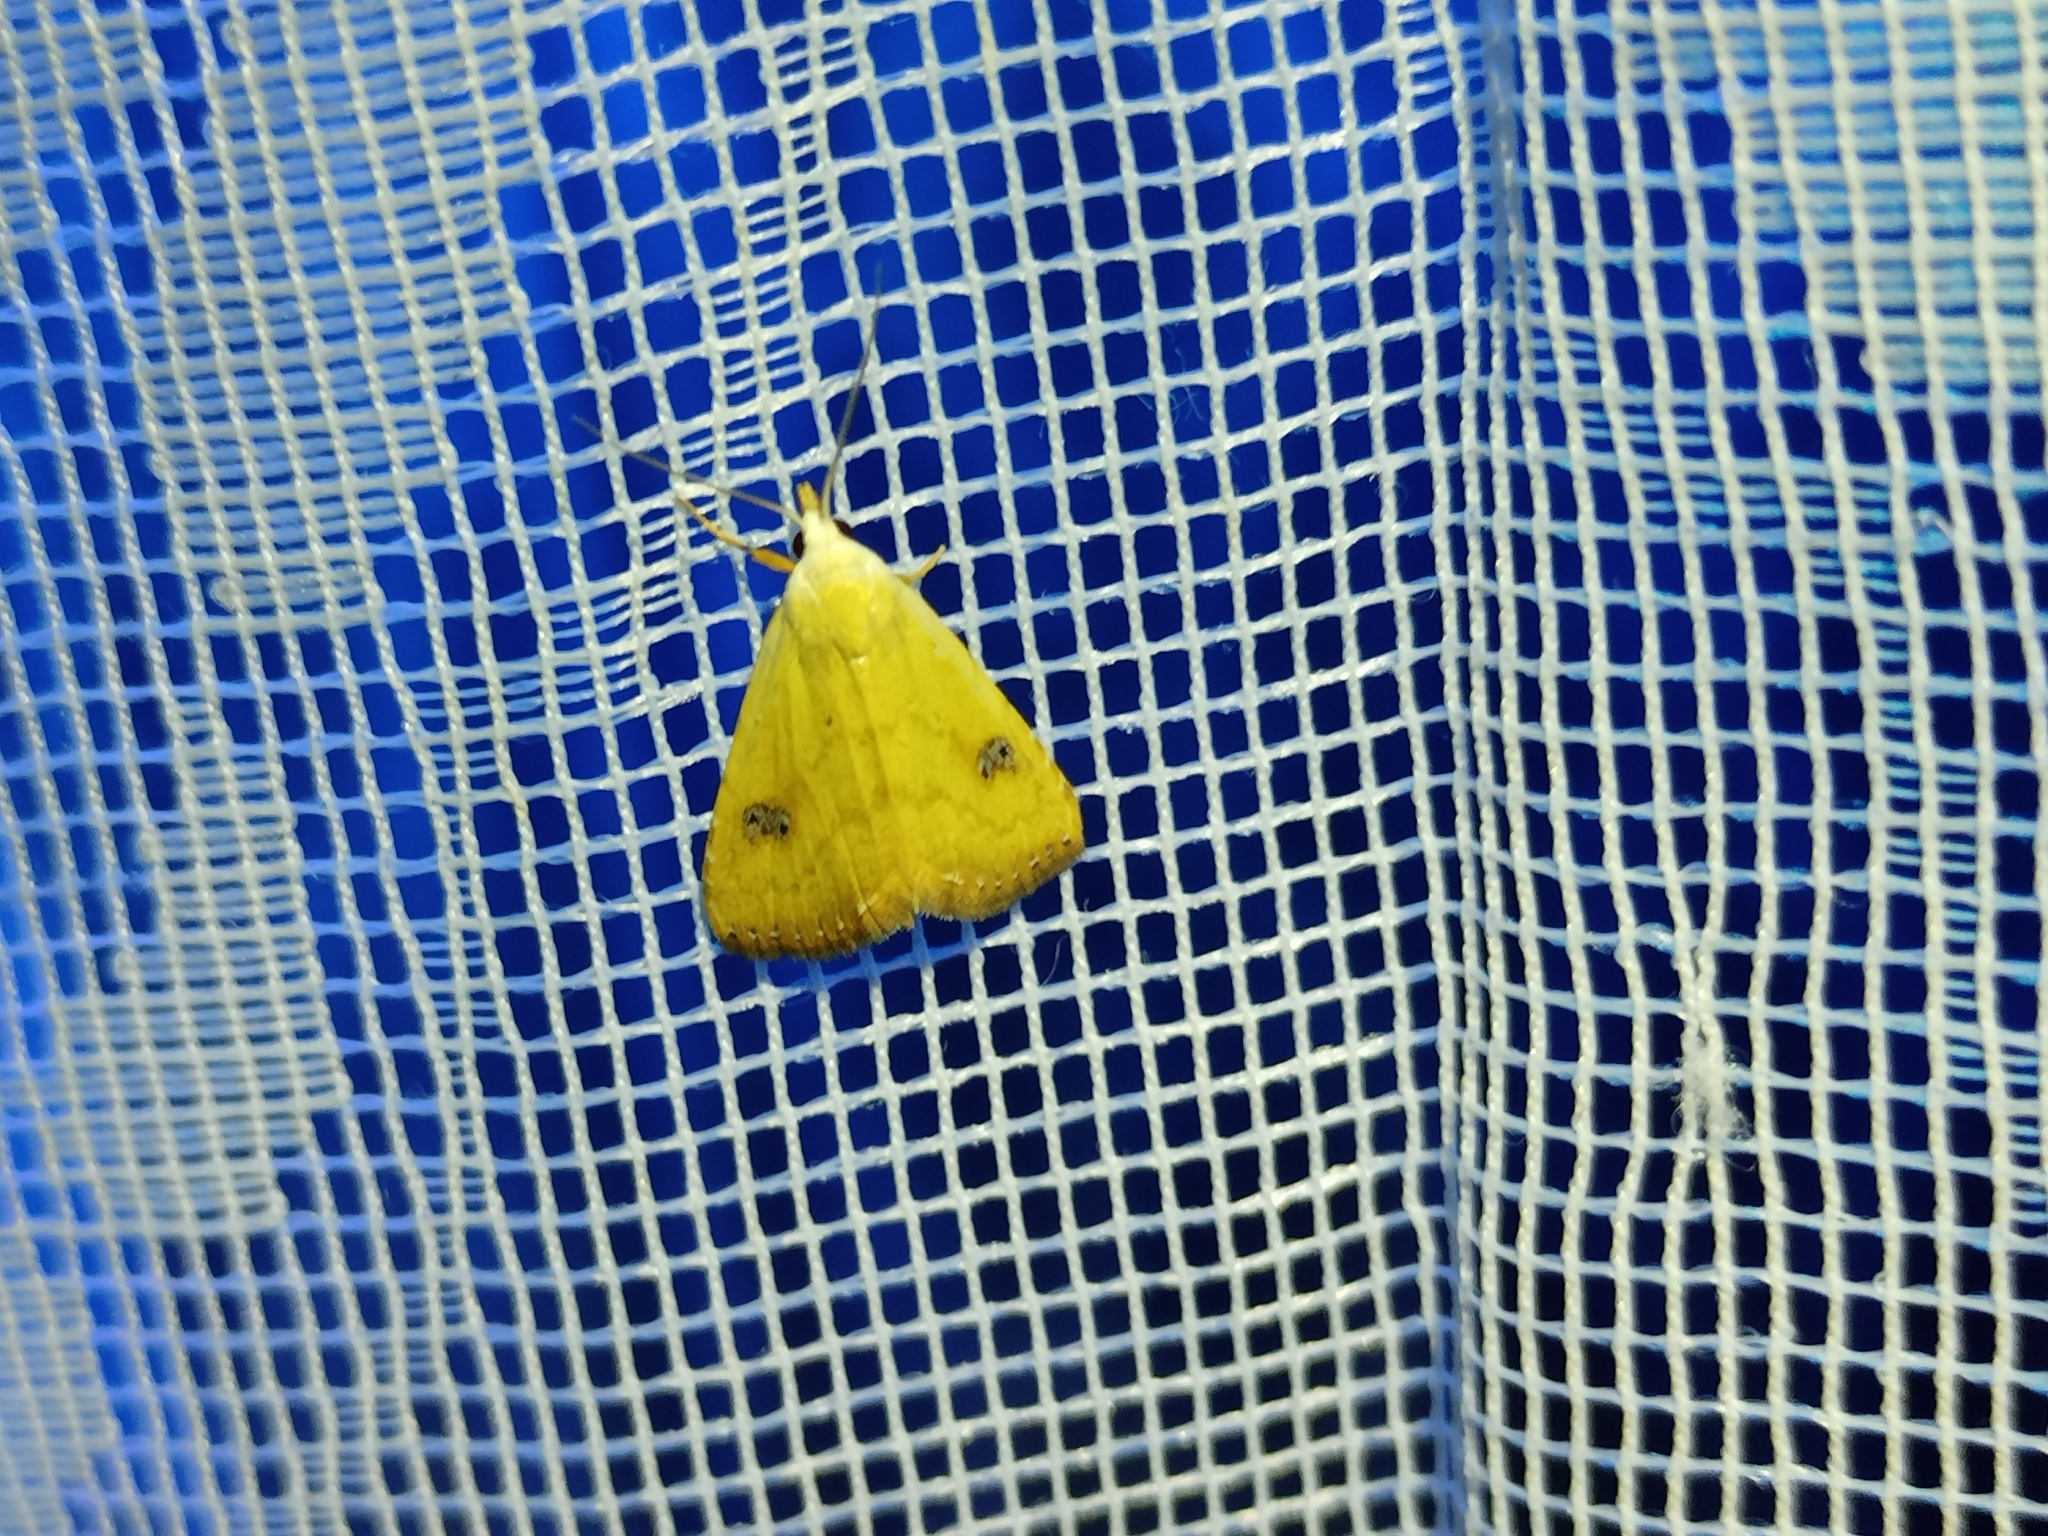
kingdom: Animalia
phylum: Arthropoda
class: Insecta
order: Lepidoptera
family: Erebidae
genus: Rivula
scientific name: Rivula sericealis
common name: Straw dot
